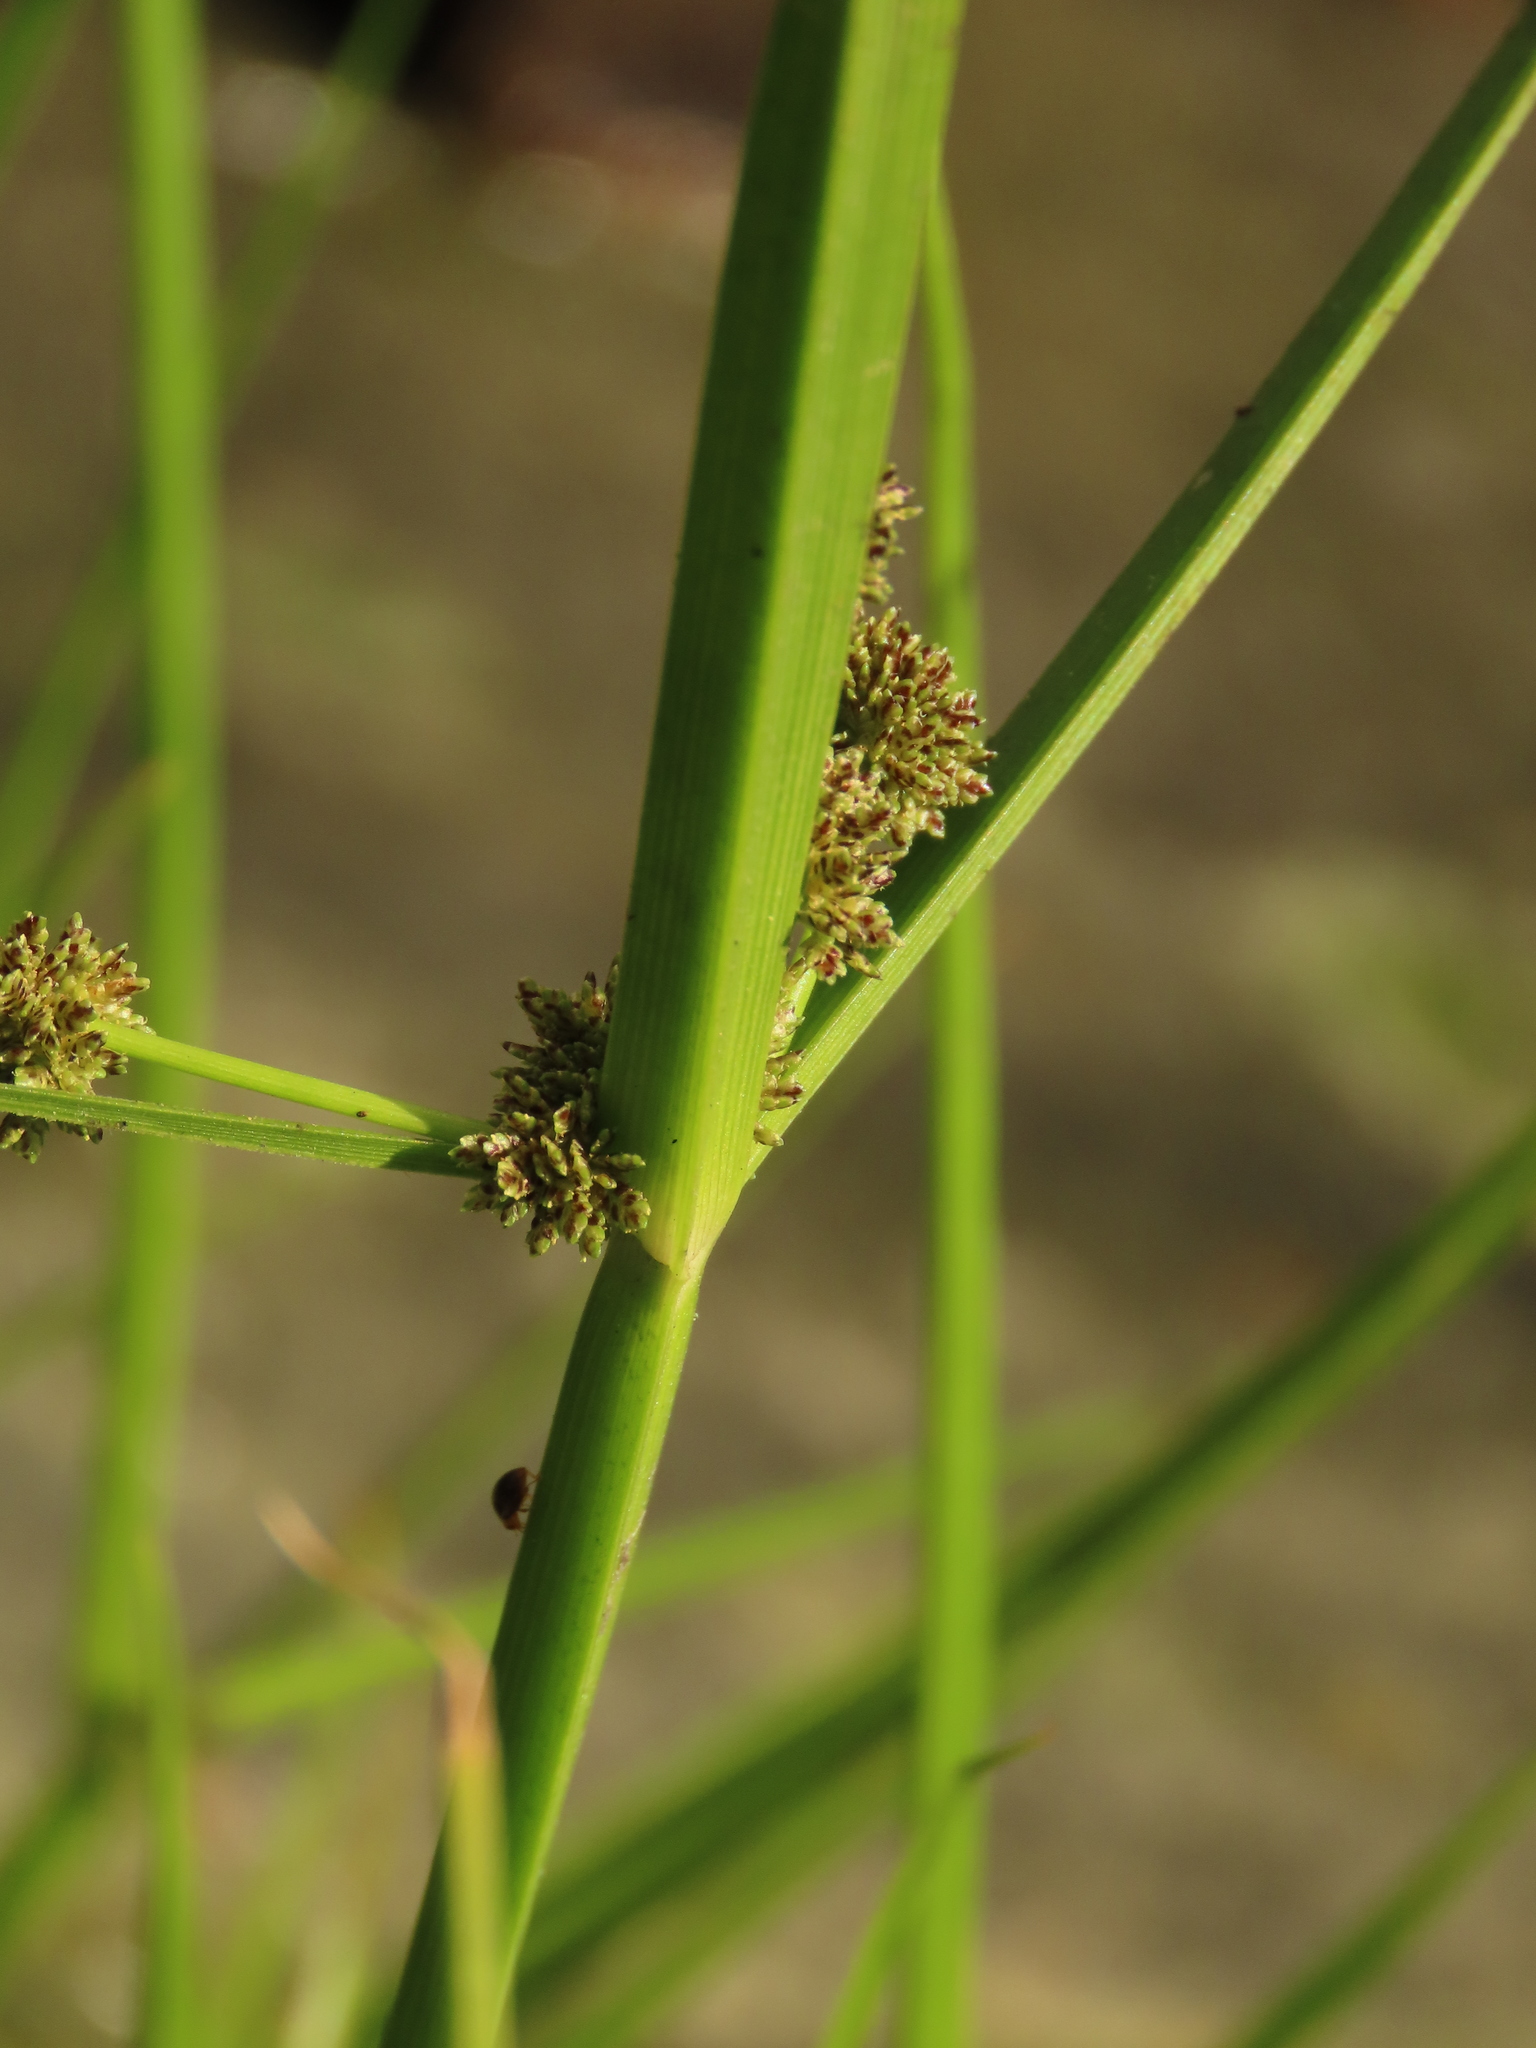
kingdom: Plantae
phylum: Tracheophyta
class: Liliopsida
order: Poales
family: Cyperaceae
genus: Cyperus
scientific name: Cyperus difformis
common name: Variable flatsedge
